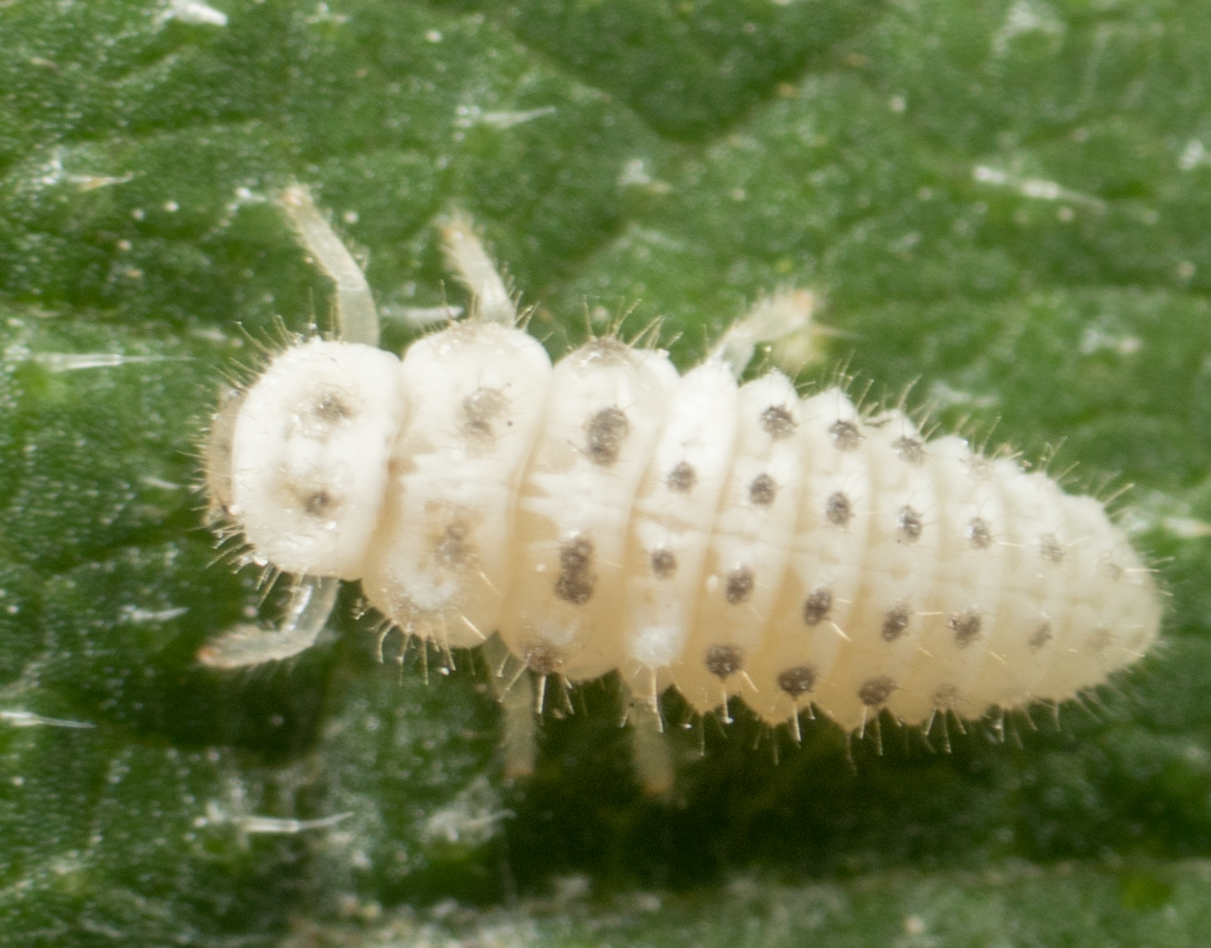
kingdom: Animalia
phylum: Arthropoda
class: Insecta
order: Coleoptera
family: Coccinellidae
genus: Psyllobora
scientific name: Psyllobora vigintimaculata
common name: Ladybird beetle
